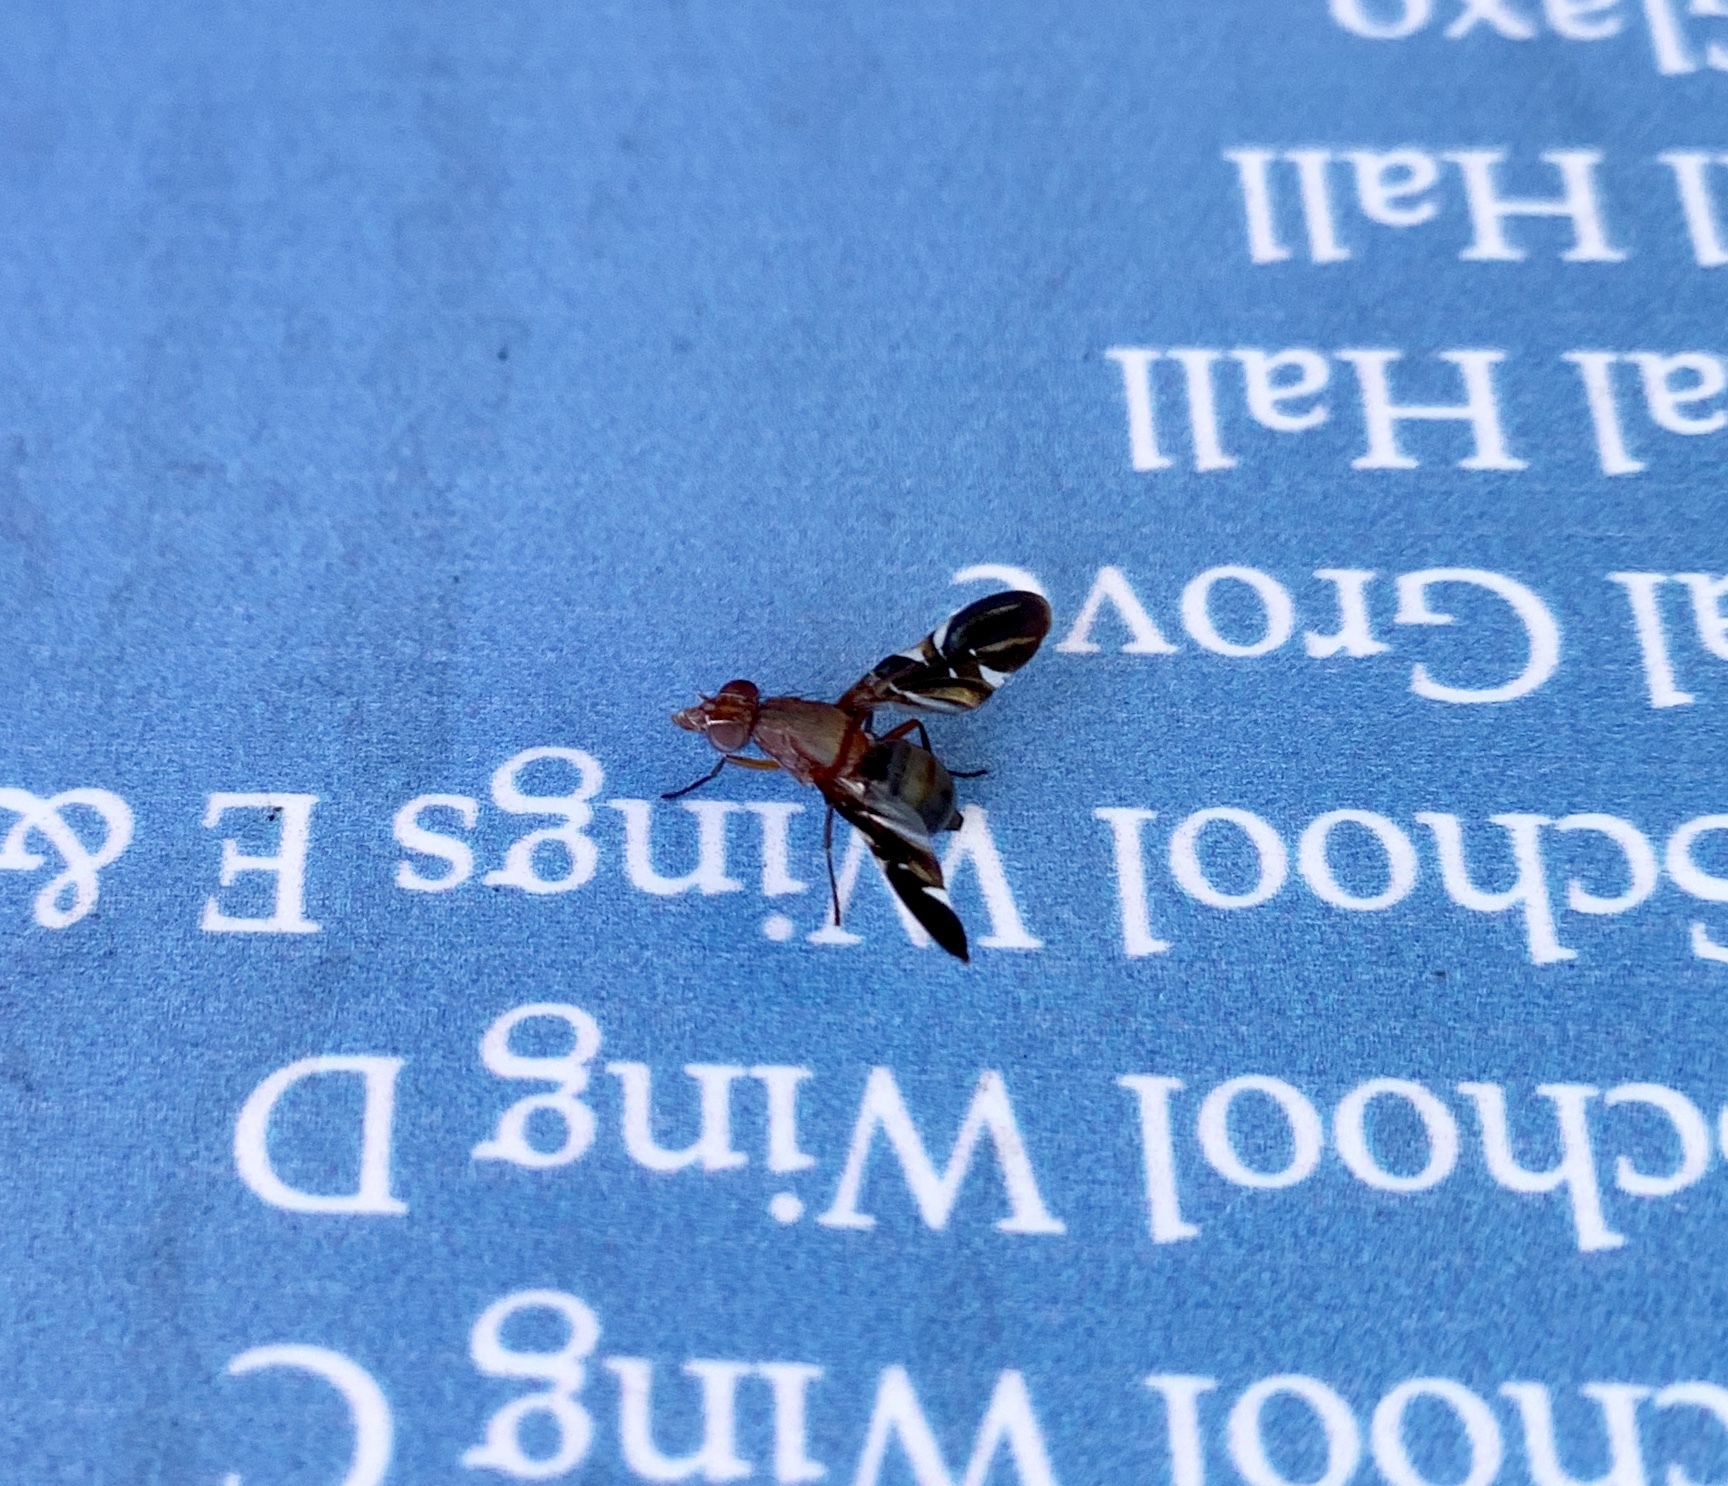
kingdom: Animalia
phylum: Arthropoda
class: Insecta
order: Diptera
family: Ulidiidae
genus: Delphinia
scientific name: Delphinia picta
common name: Common picture-winged fly
